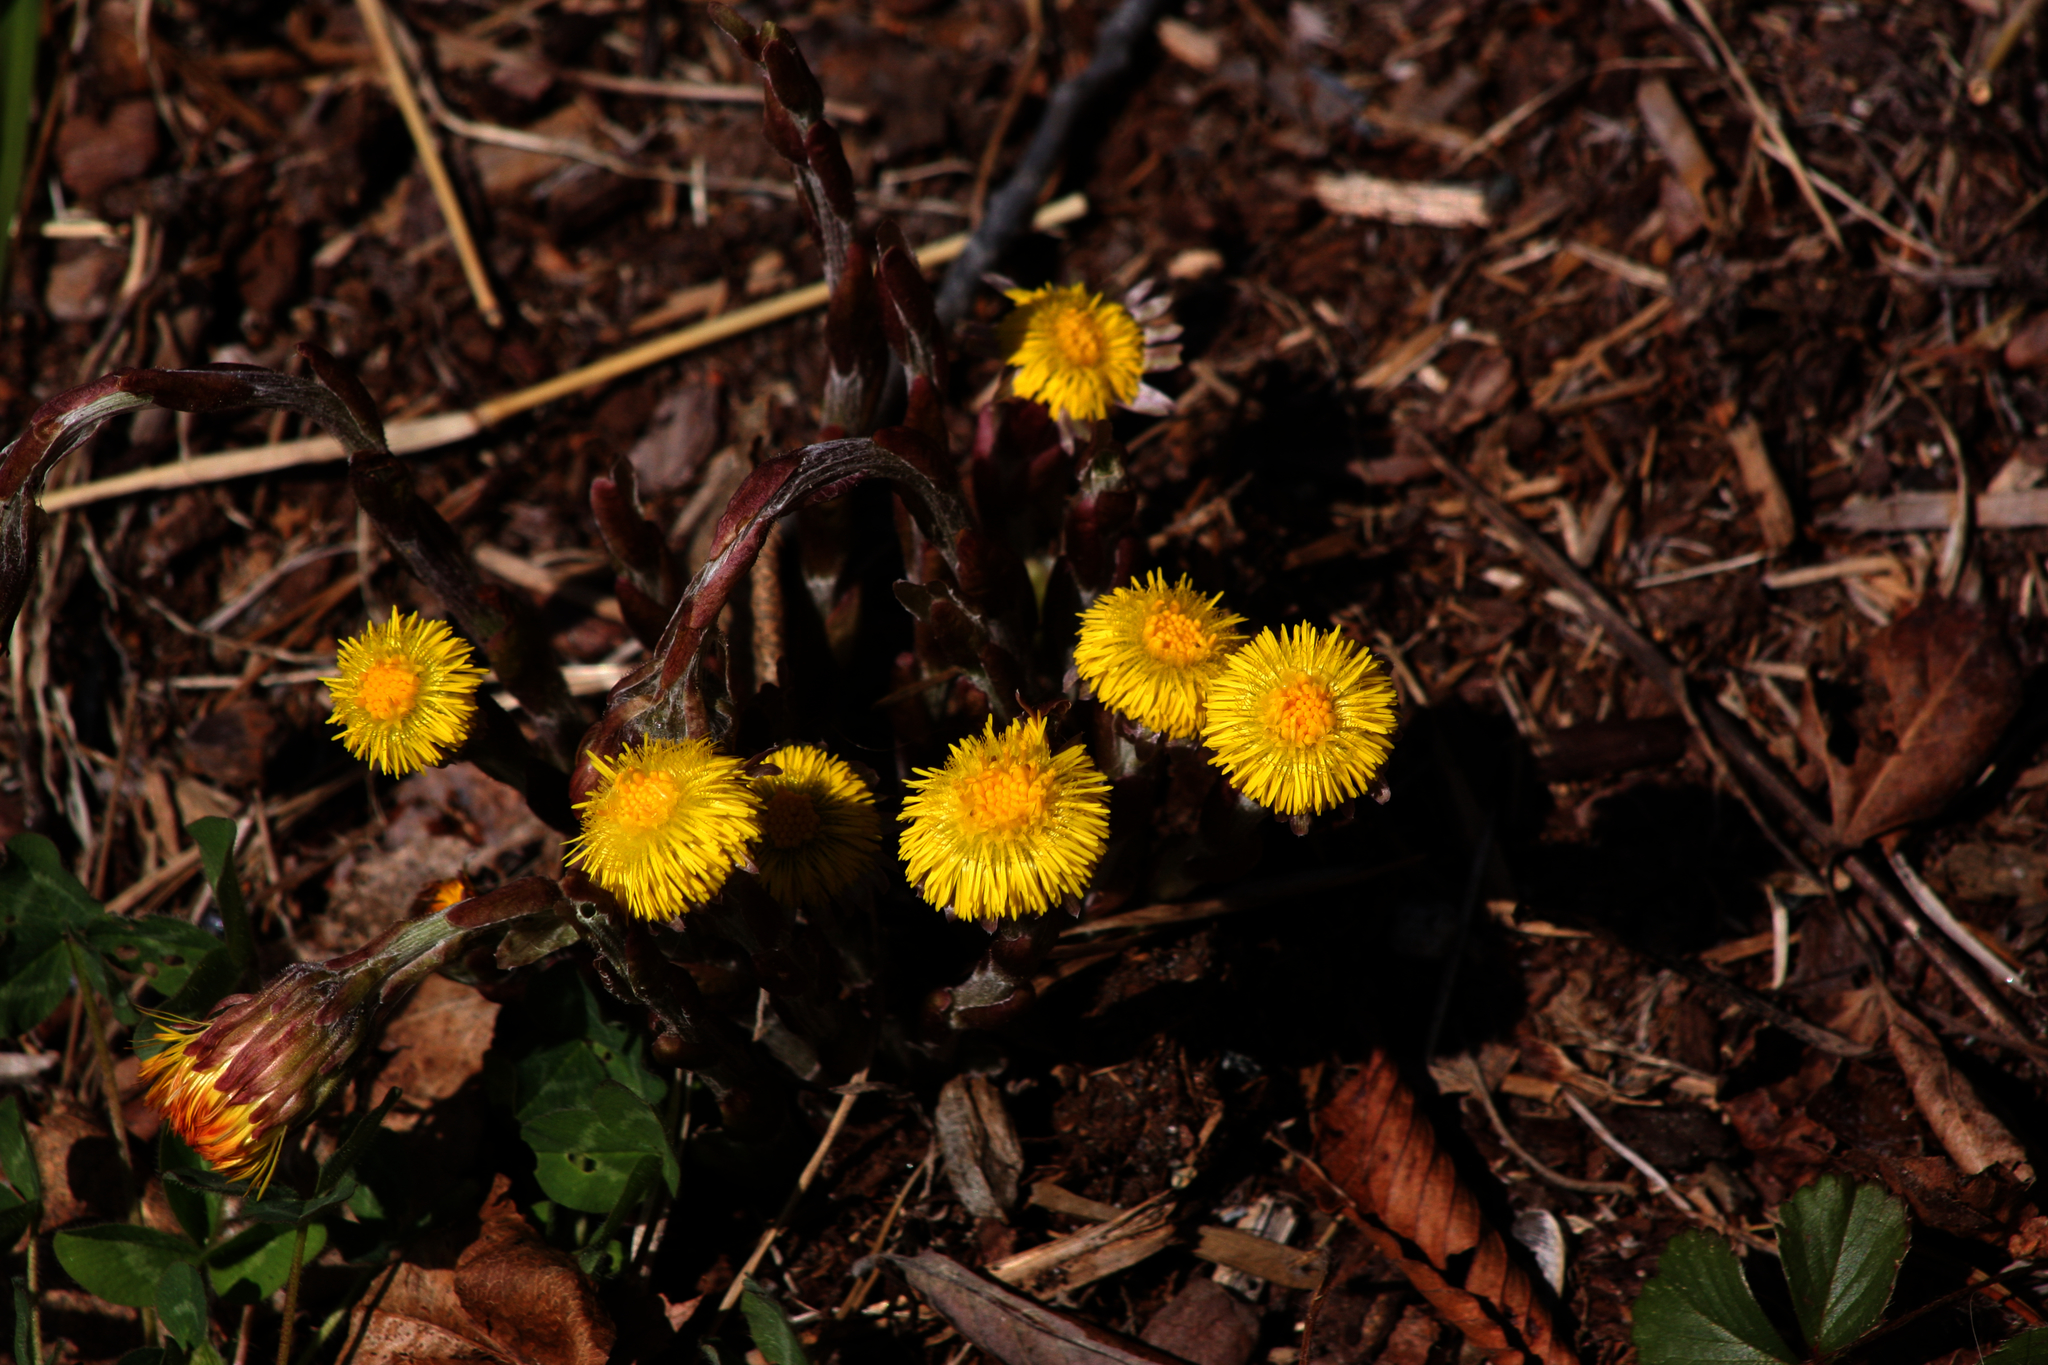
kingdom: Plantae
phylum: Tracheophyta
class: Magnoliopsida
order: Asterales
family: Asteraceae
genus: Tussilago
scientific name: Tussilago farfara
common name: Coltsfoot
